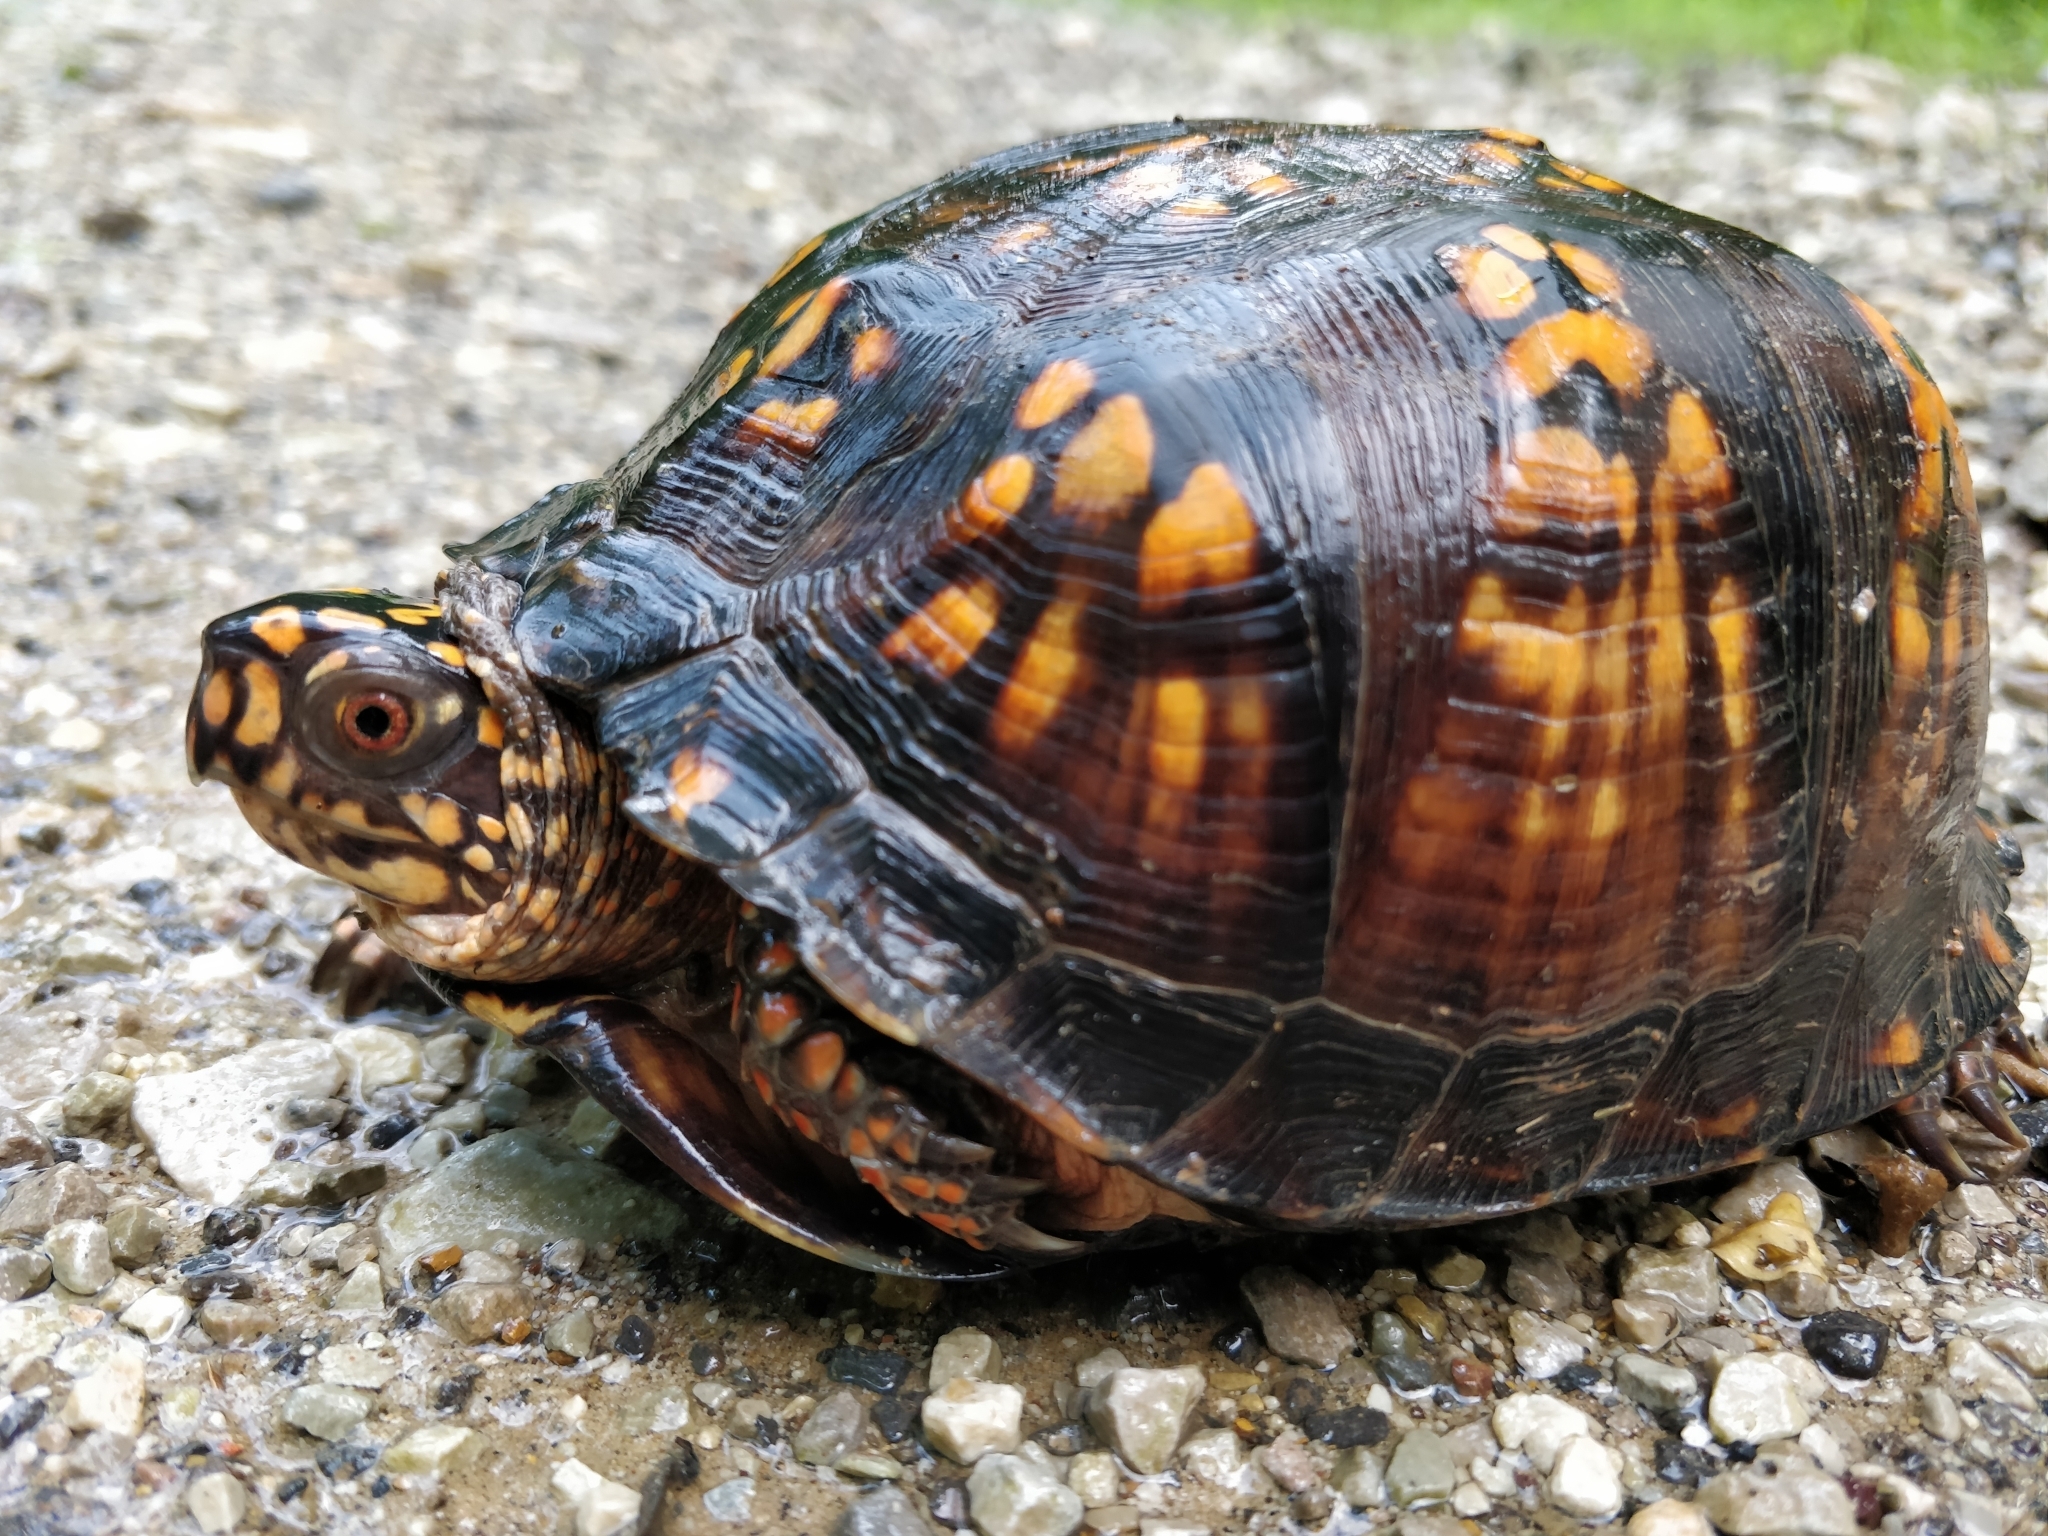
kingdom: Animalia
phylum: Chordata
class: Testudines
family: Emydidae
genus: Terrapene
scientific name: Terrapene carolina
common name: Common box turtle
